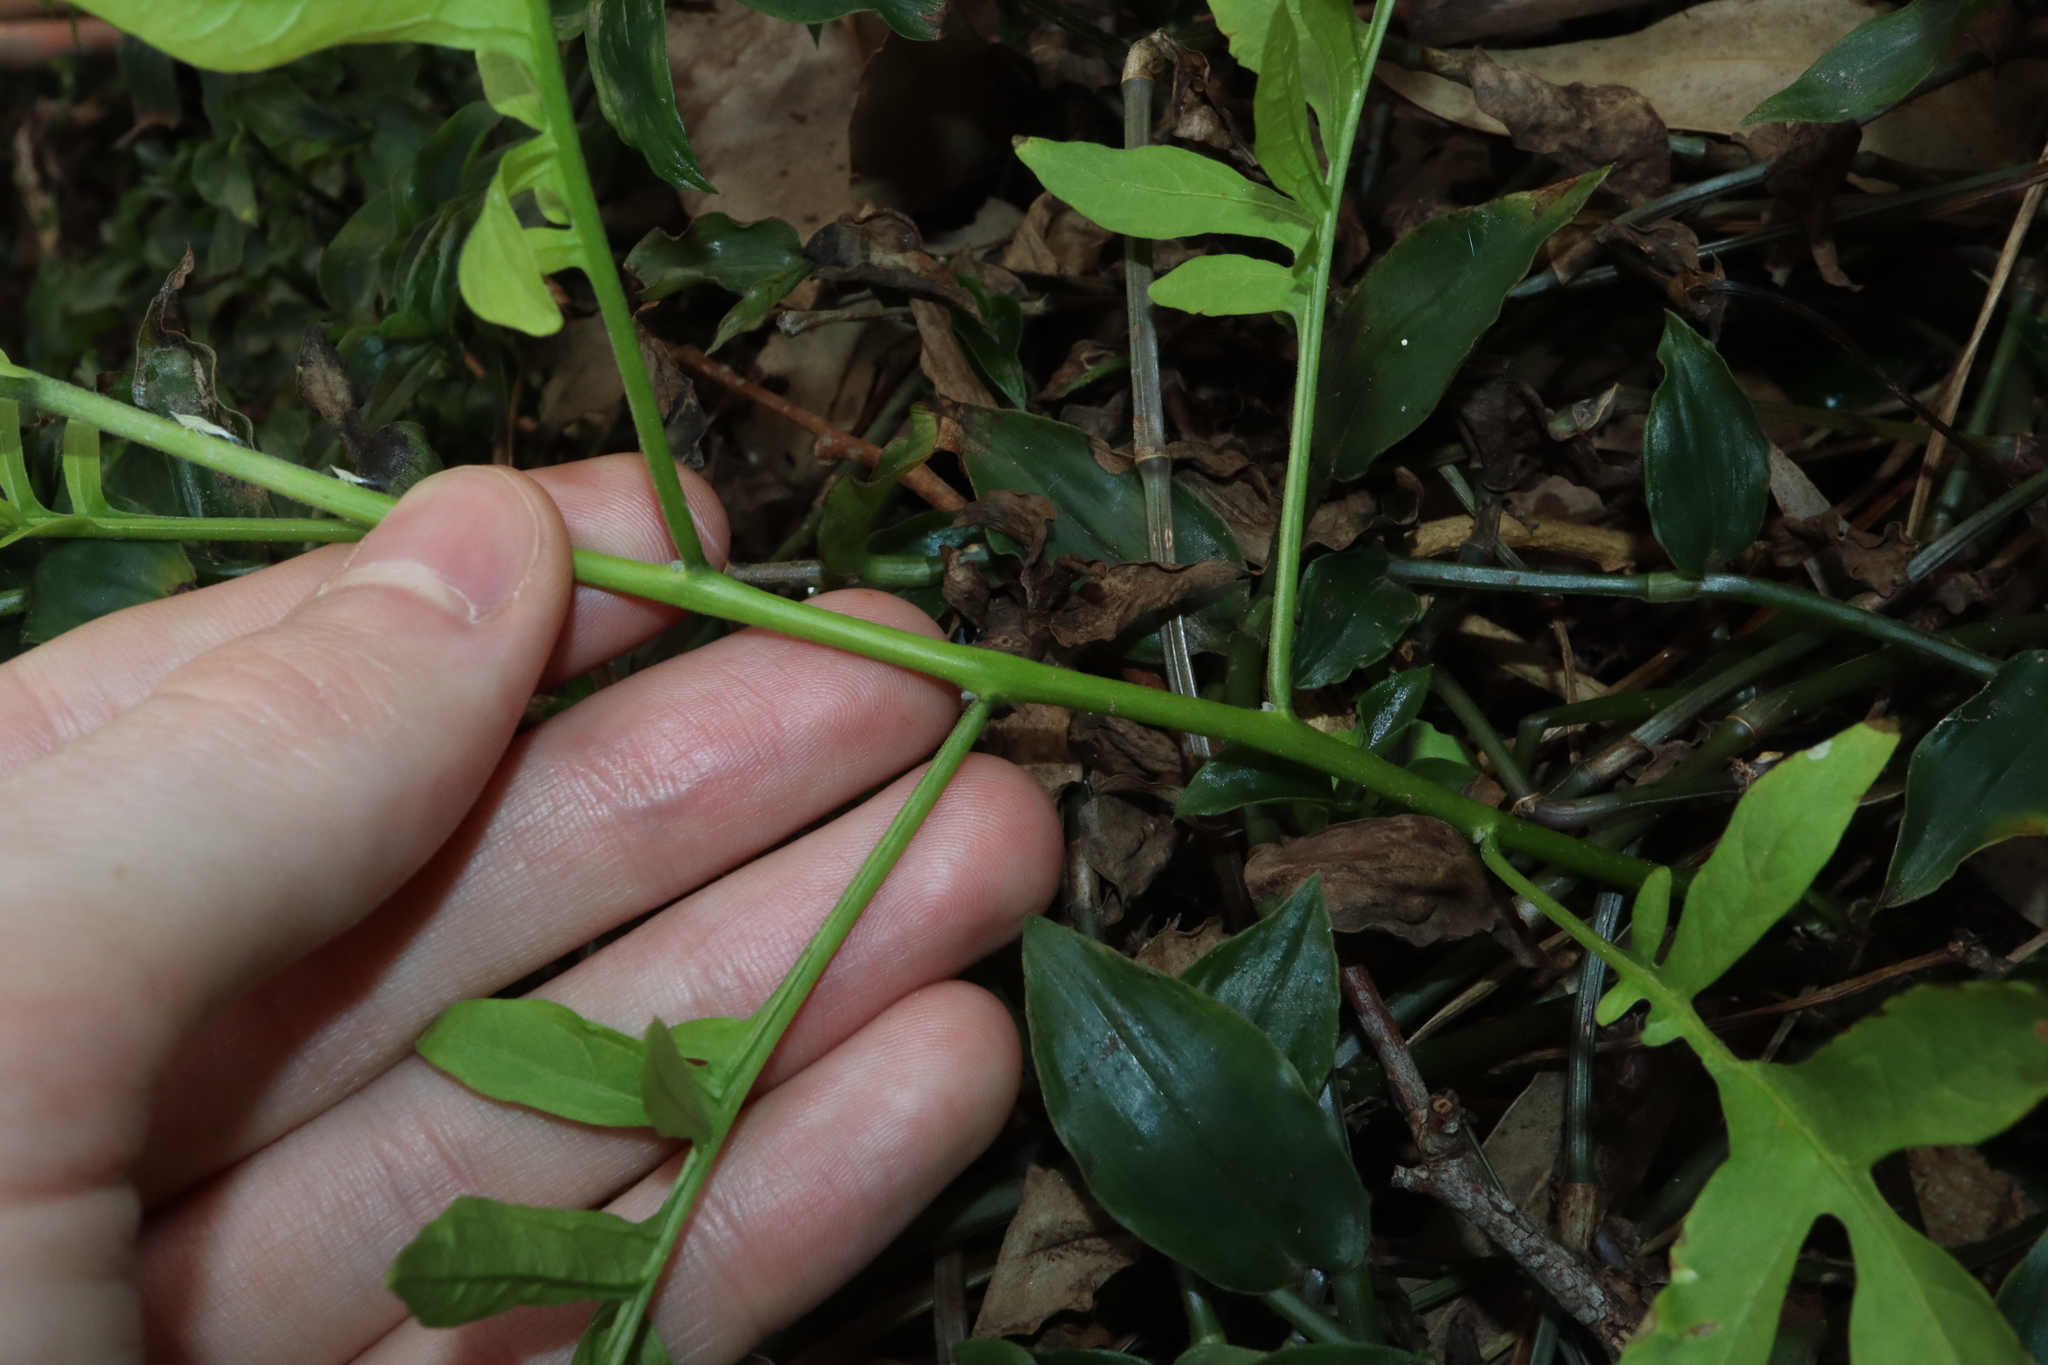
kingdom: Plantae
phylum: Tracheophyta
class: Magnoliopsida
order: Solanales
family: Solanaceae
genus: Solanum
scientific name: Solanum seaforthianum
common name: Brazilian nightshade
